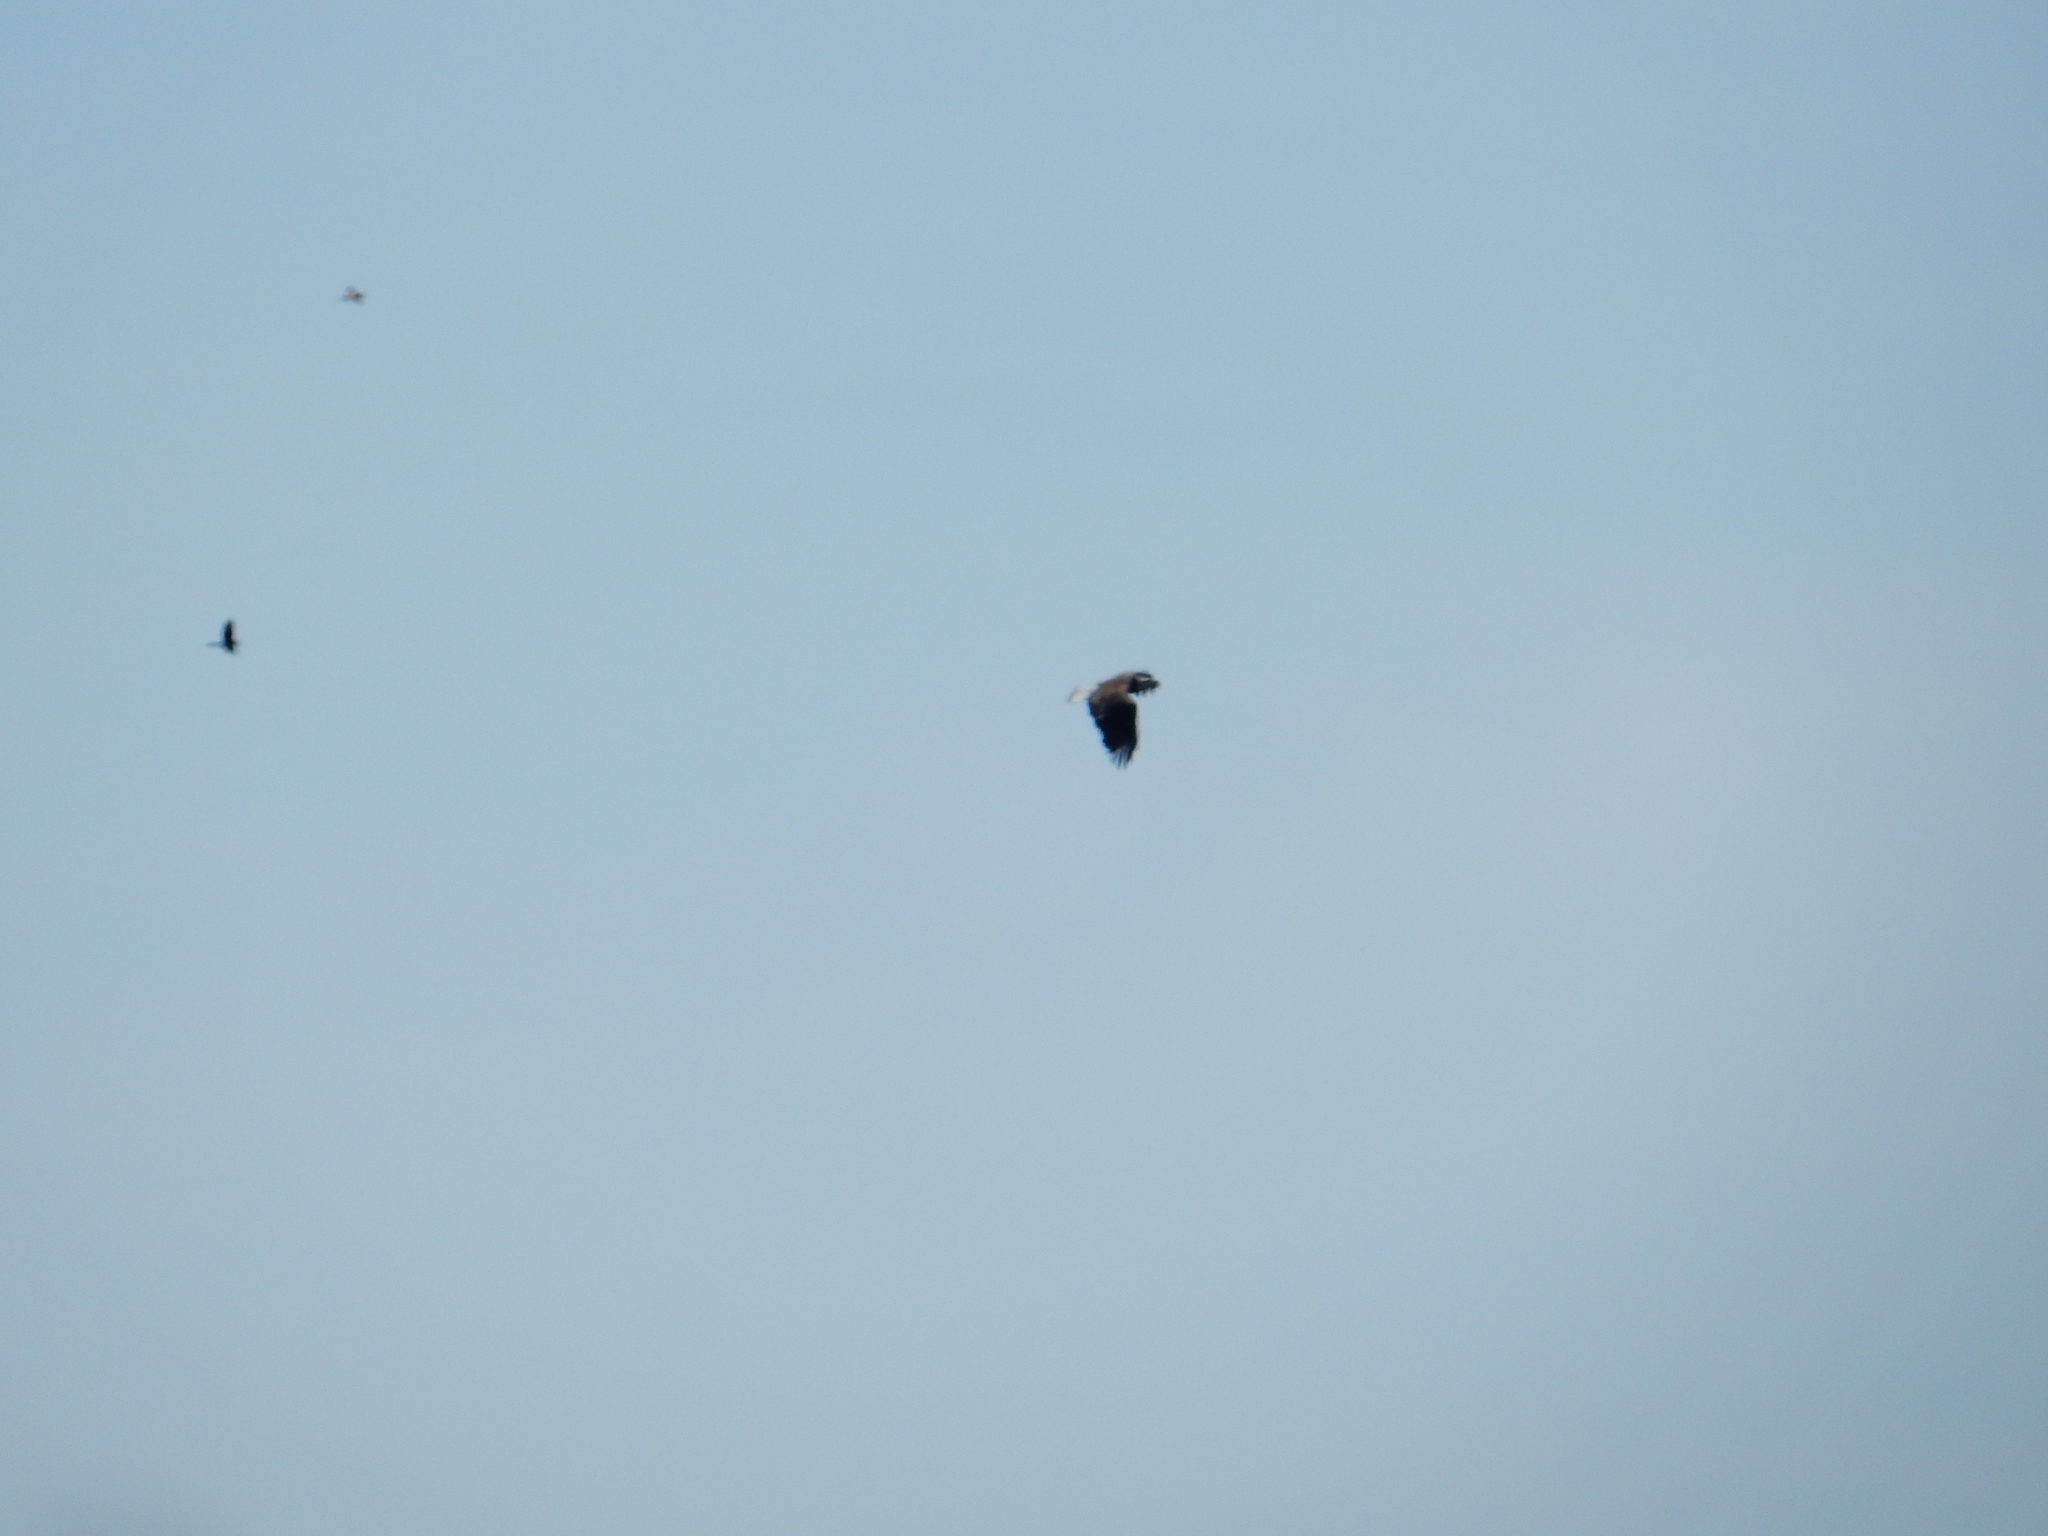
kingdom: Animalia
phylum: Chordata
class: Aves
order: Accipitriformes
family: Accipitridae
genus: Haliaeetus
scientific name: Haliaeetus leucocephalus
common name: Bald eagle
